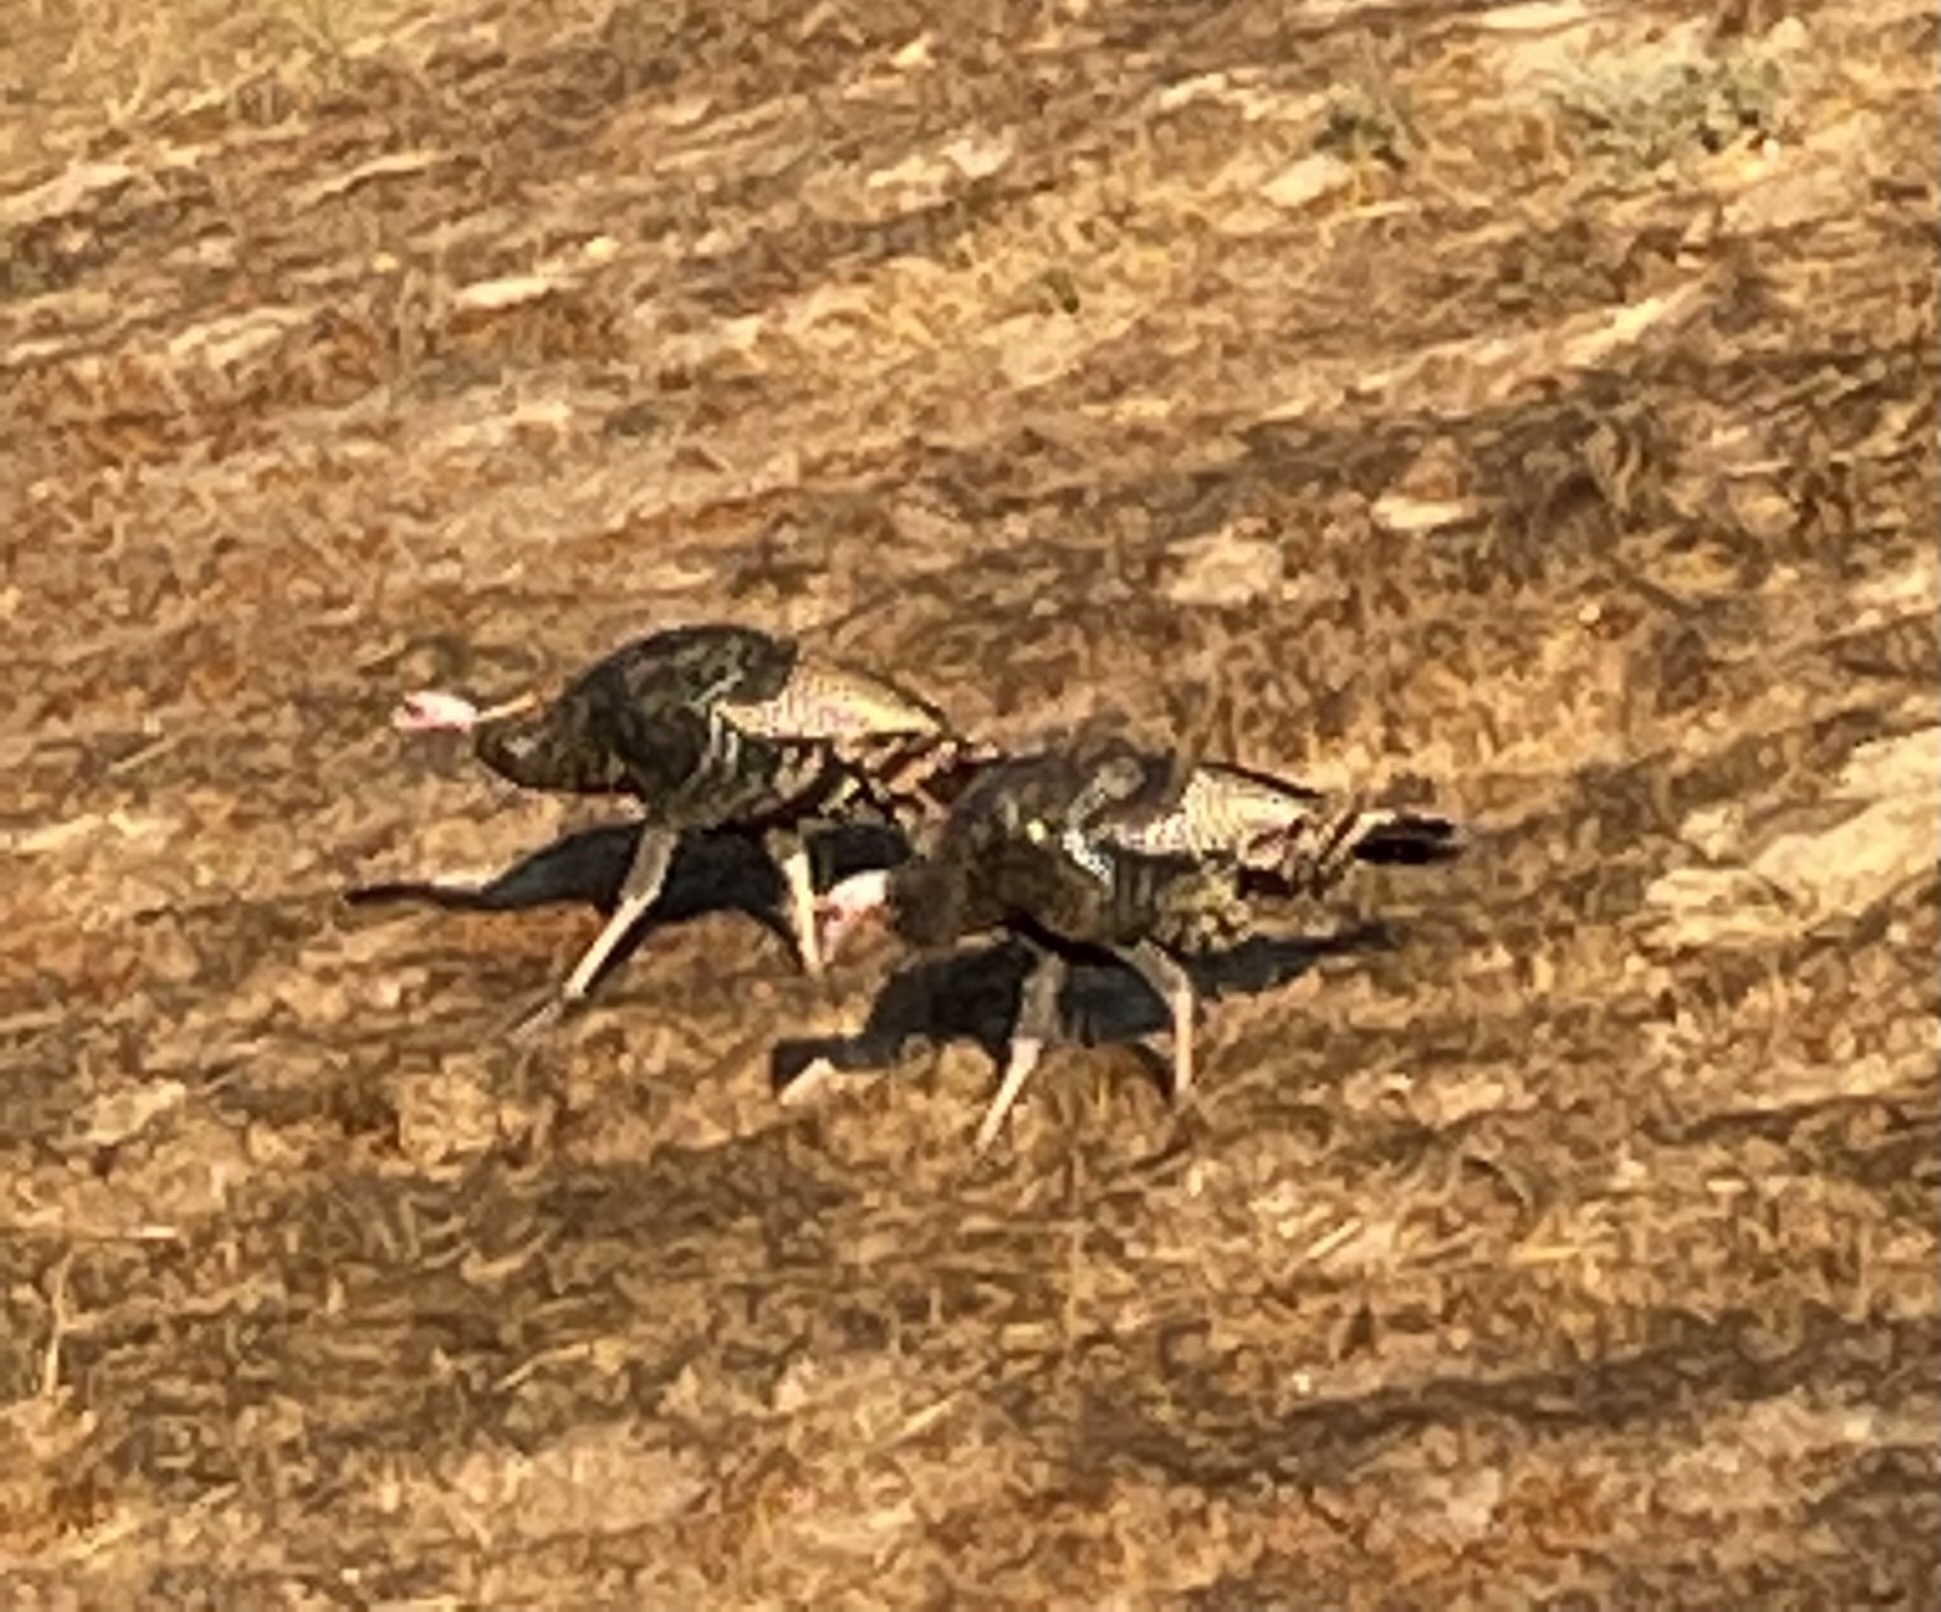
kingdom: Animalia
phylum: Chordata
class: Aves
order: Galliformes
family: Phasianidae
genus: Meleagris
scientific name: Meleagris gallopavo
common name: Wild turkey
